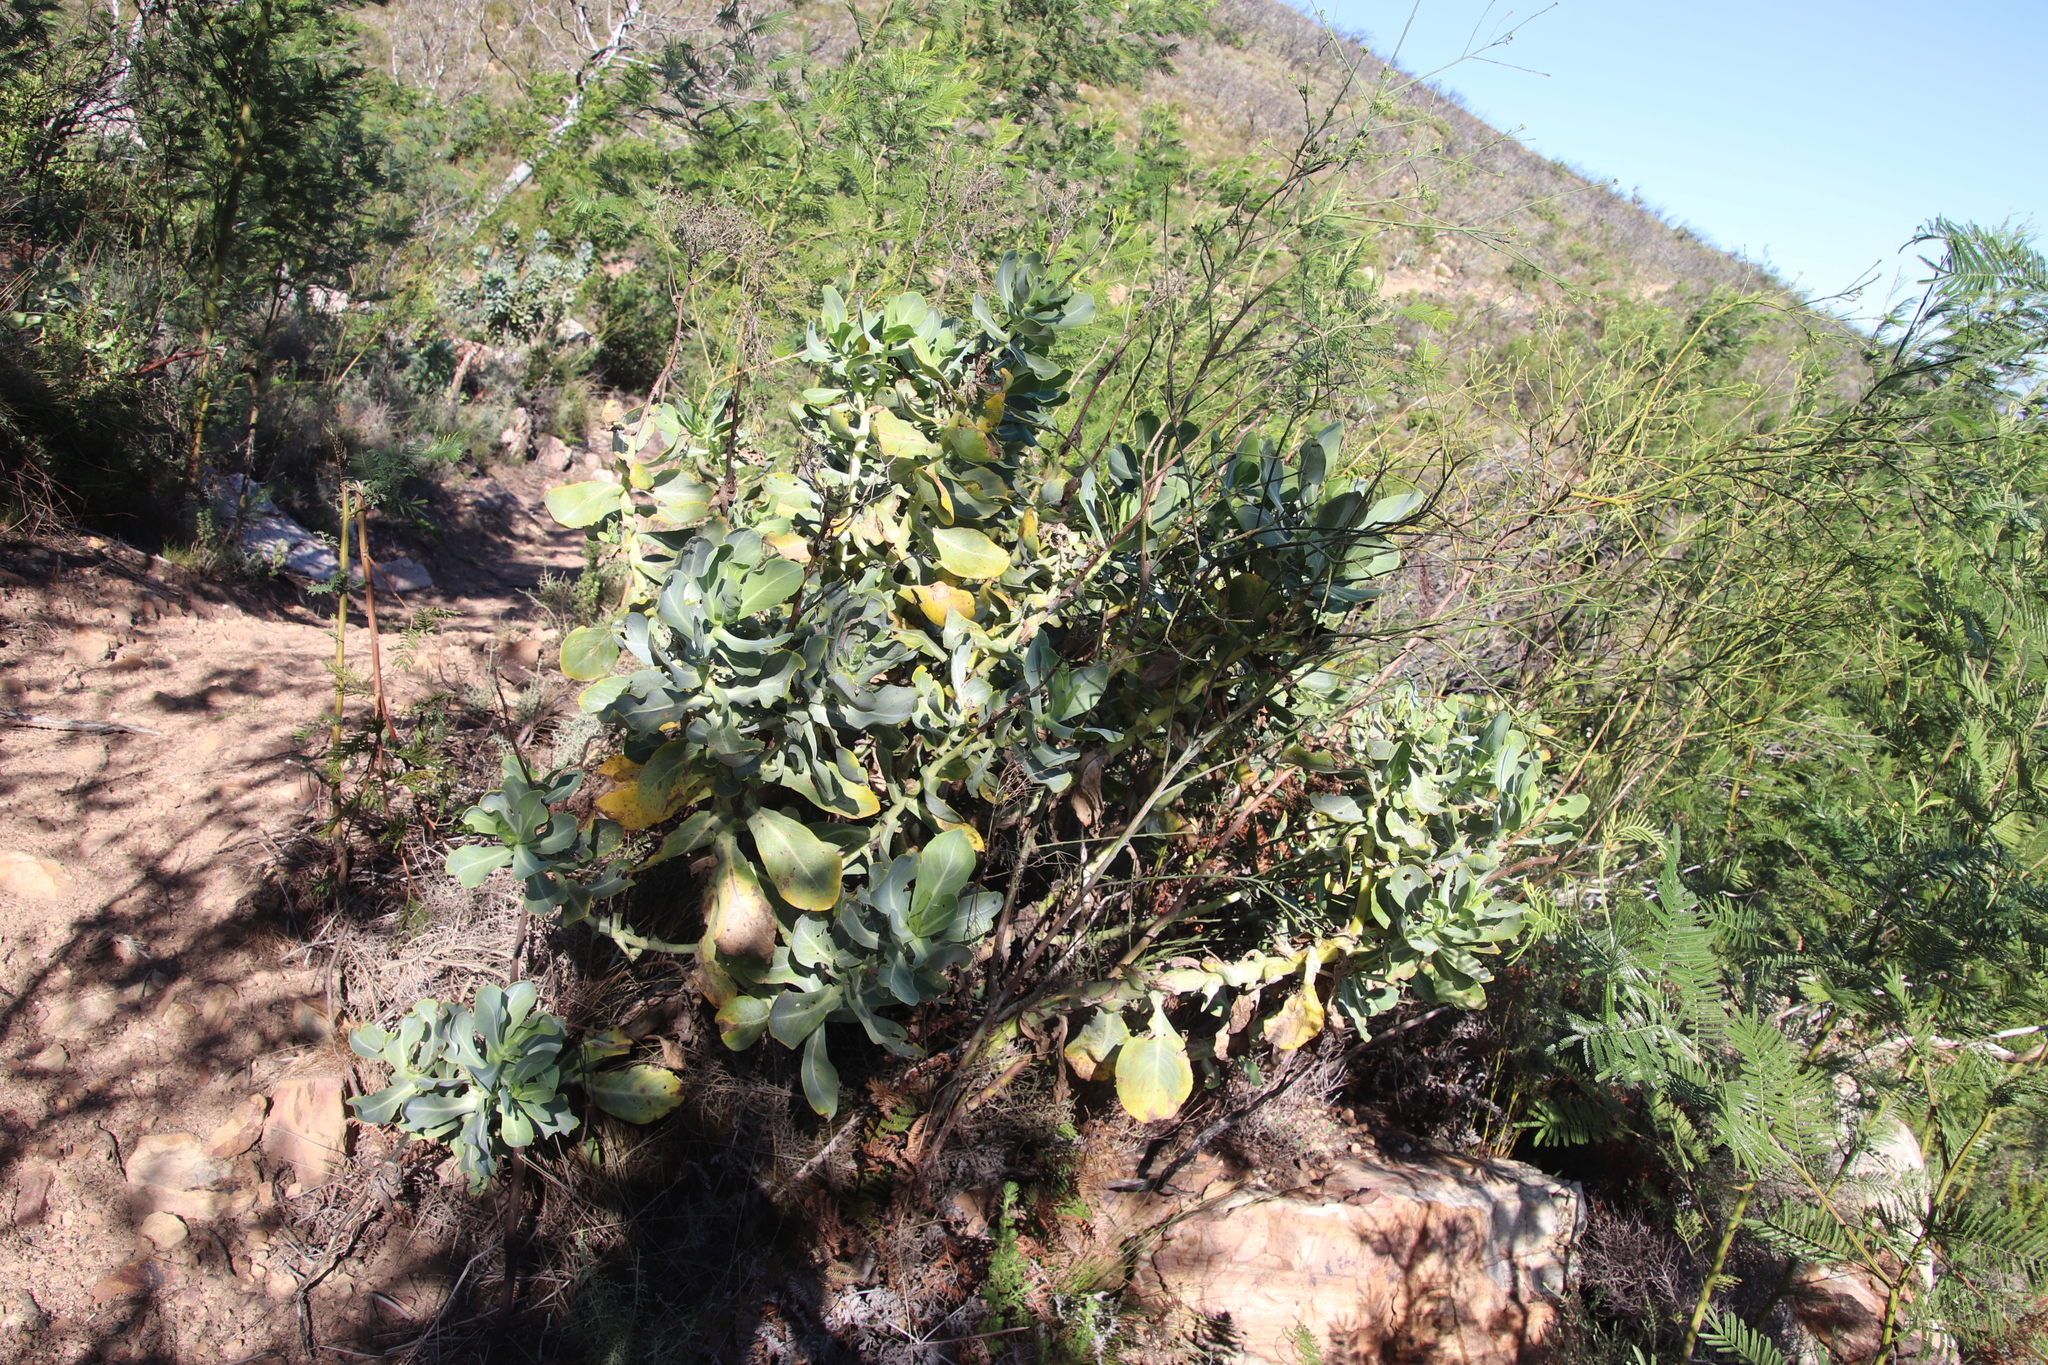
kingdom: Plantae
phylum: Tracheophyta
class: Magnoliopsida
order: Asterales
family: Asteraceae
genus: Othonna
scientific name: Othonna parviflora
